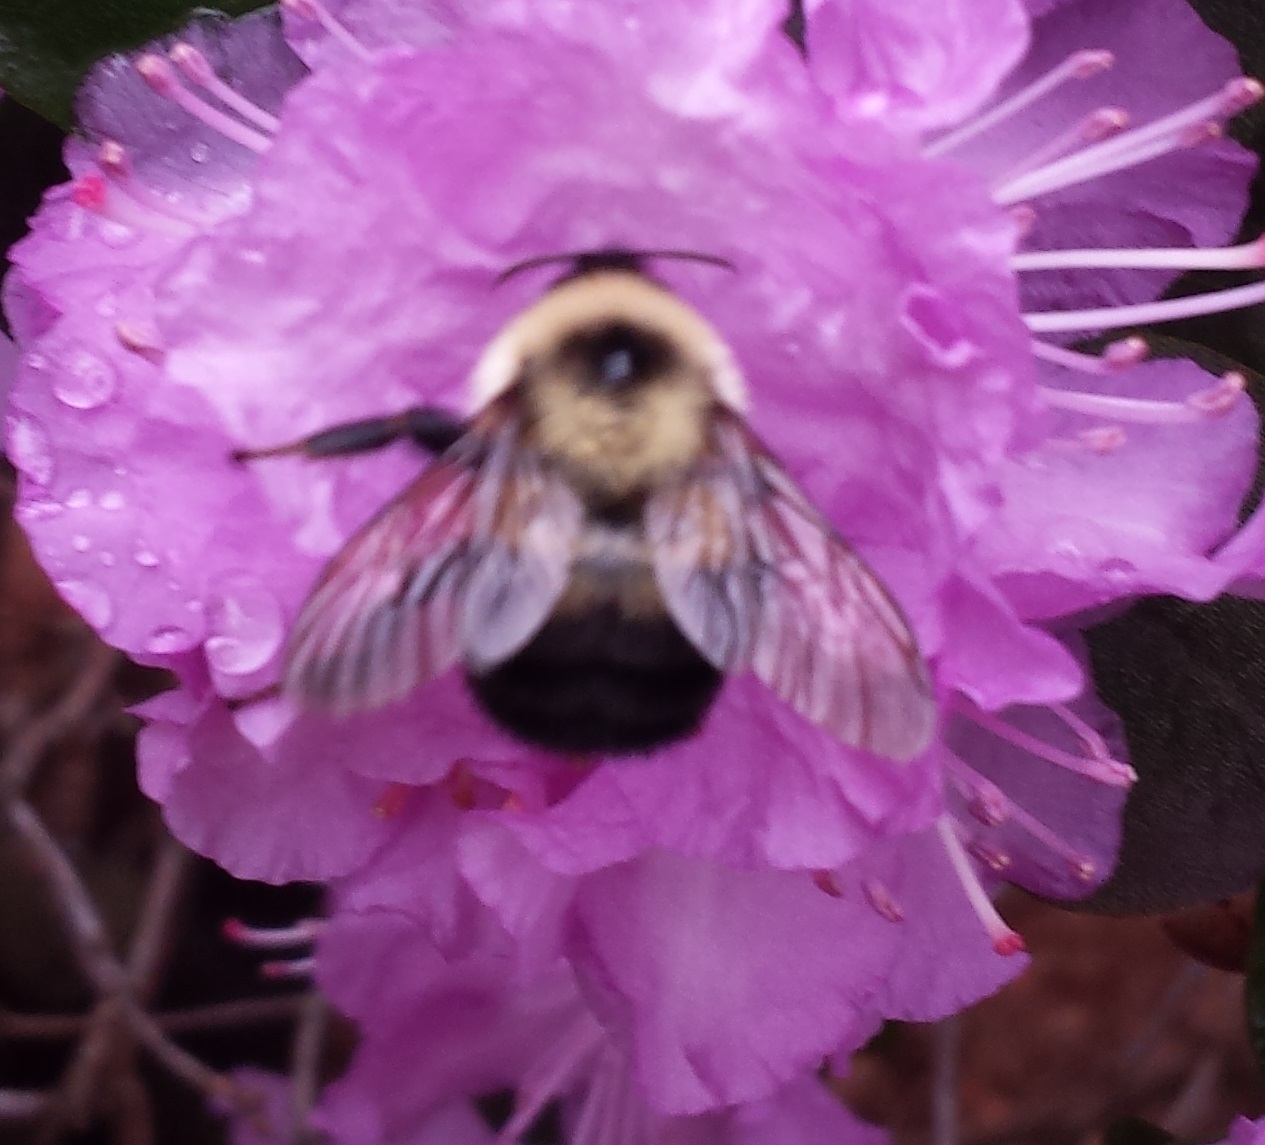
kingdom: Animalia
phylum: Arthropoda
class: Insecta
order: Hymenoptera
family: Apidae
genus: Bombus
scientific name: Bombus bimaculatus
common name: Two-spotted bumble bee
